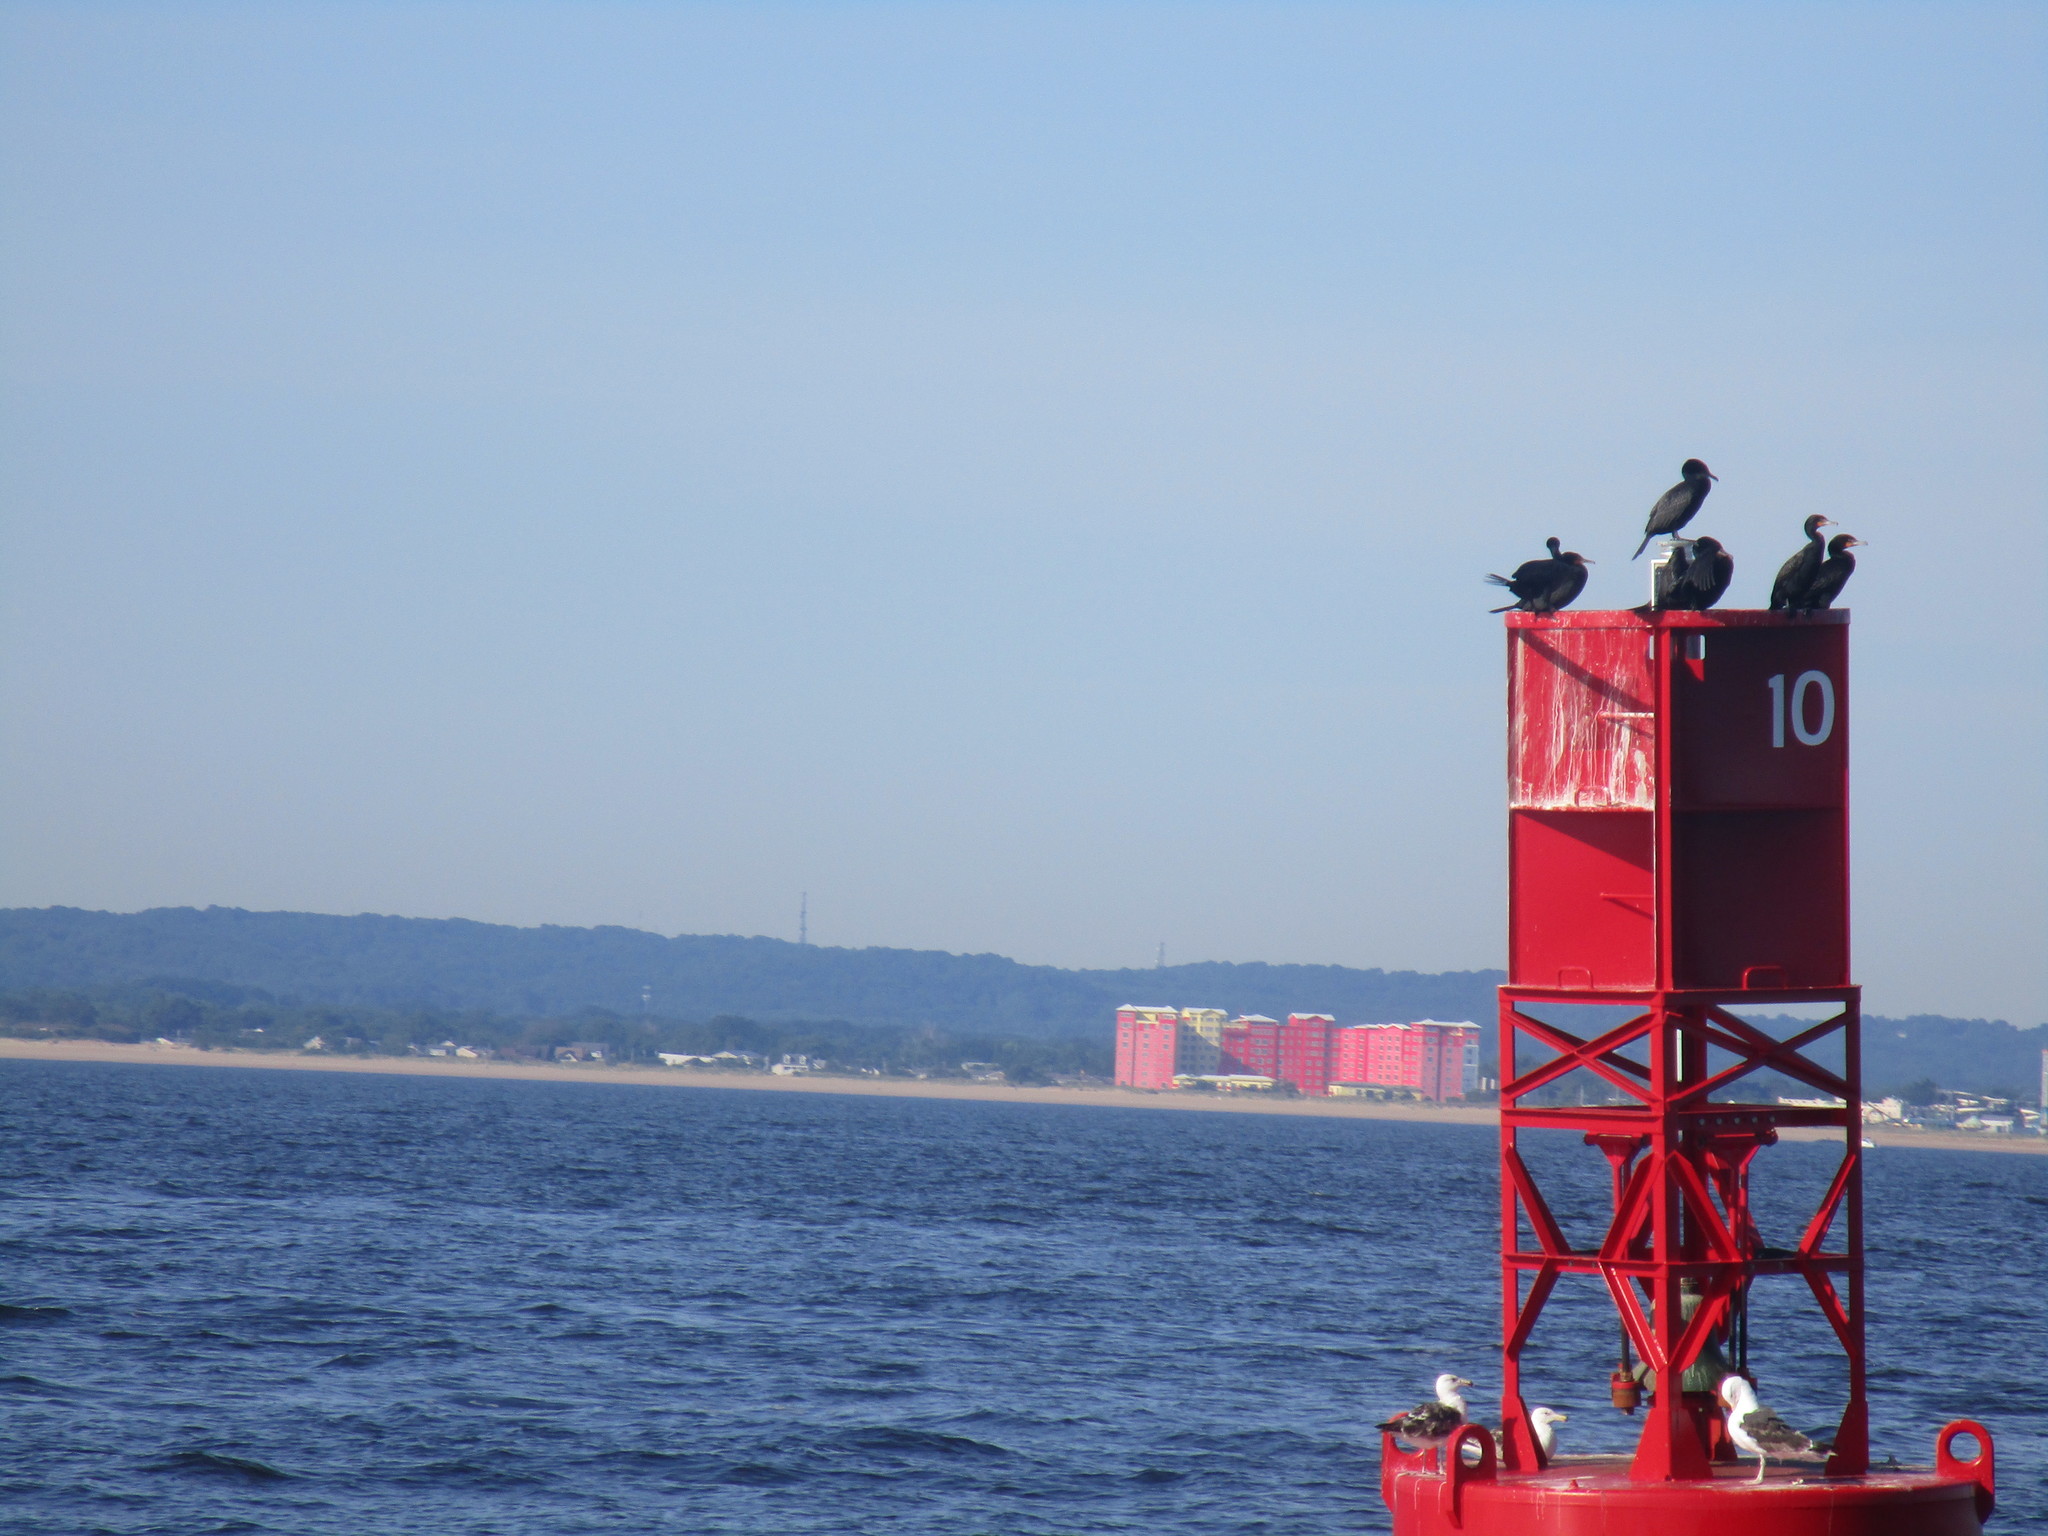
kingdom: Animalia
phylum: Chordata
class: Aves
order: Suliformes
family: Phalacrocoracidae
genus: Phalacrocorax
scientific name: Phalacrocorax auritus
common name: Double-crested cormorant
